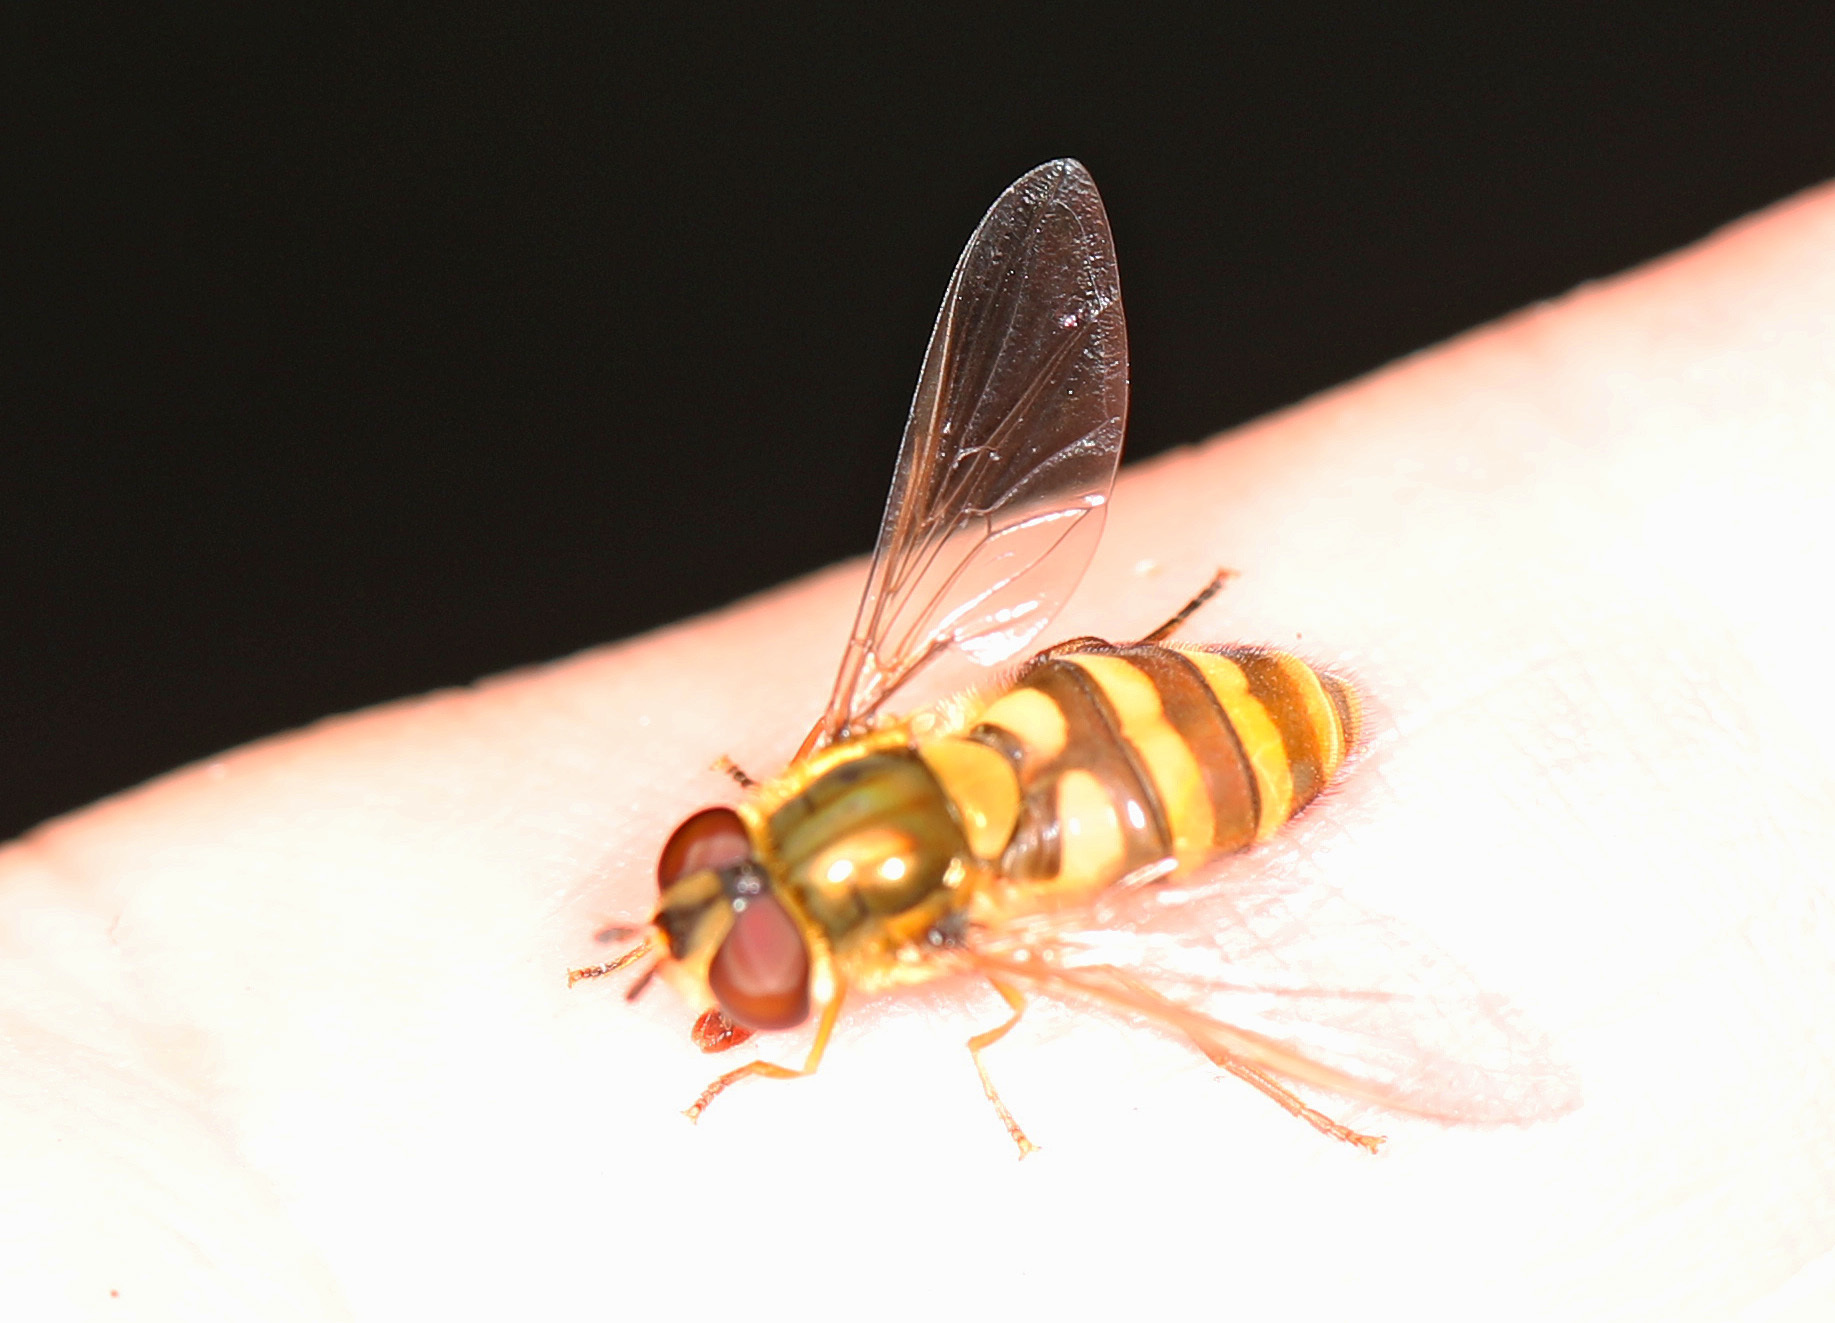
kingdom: Animalia
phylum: Arthropoda
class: Insecta
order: Diptera
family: Syrphidae
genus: Syrphus
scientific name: Syrphus ribesii
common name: Common flower fly
